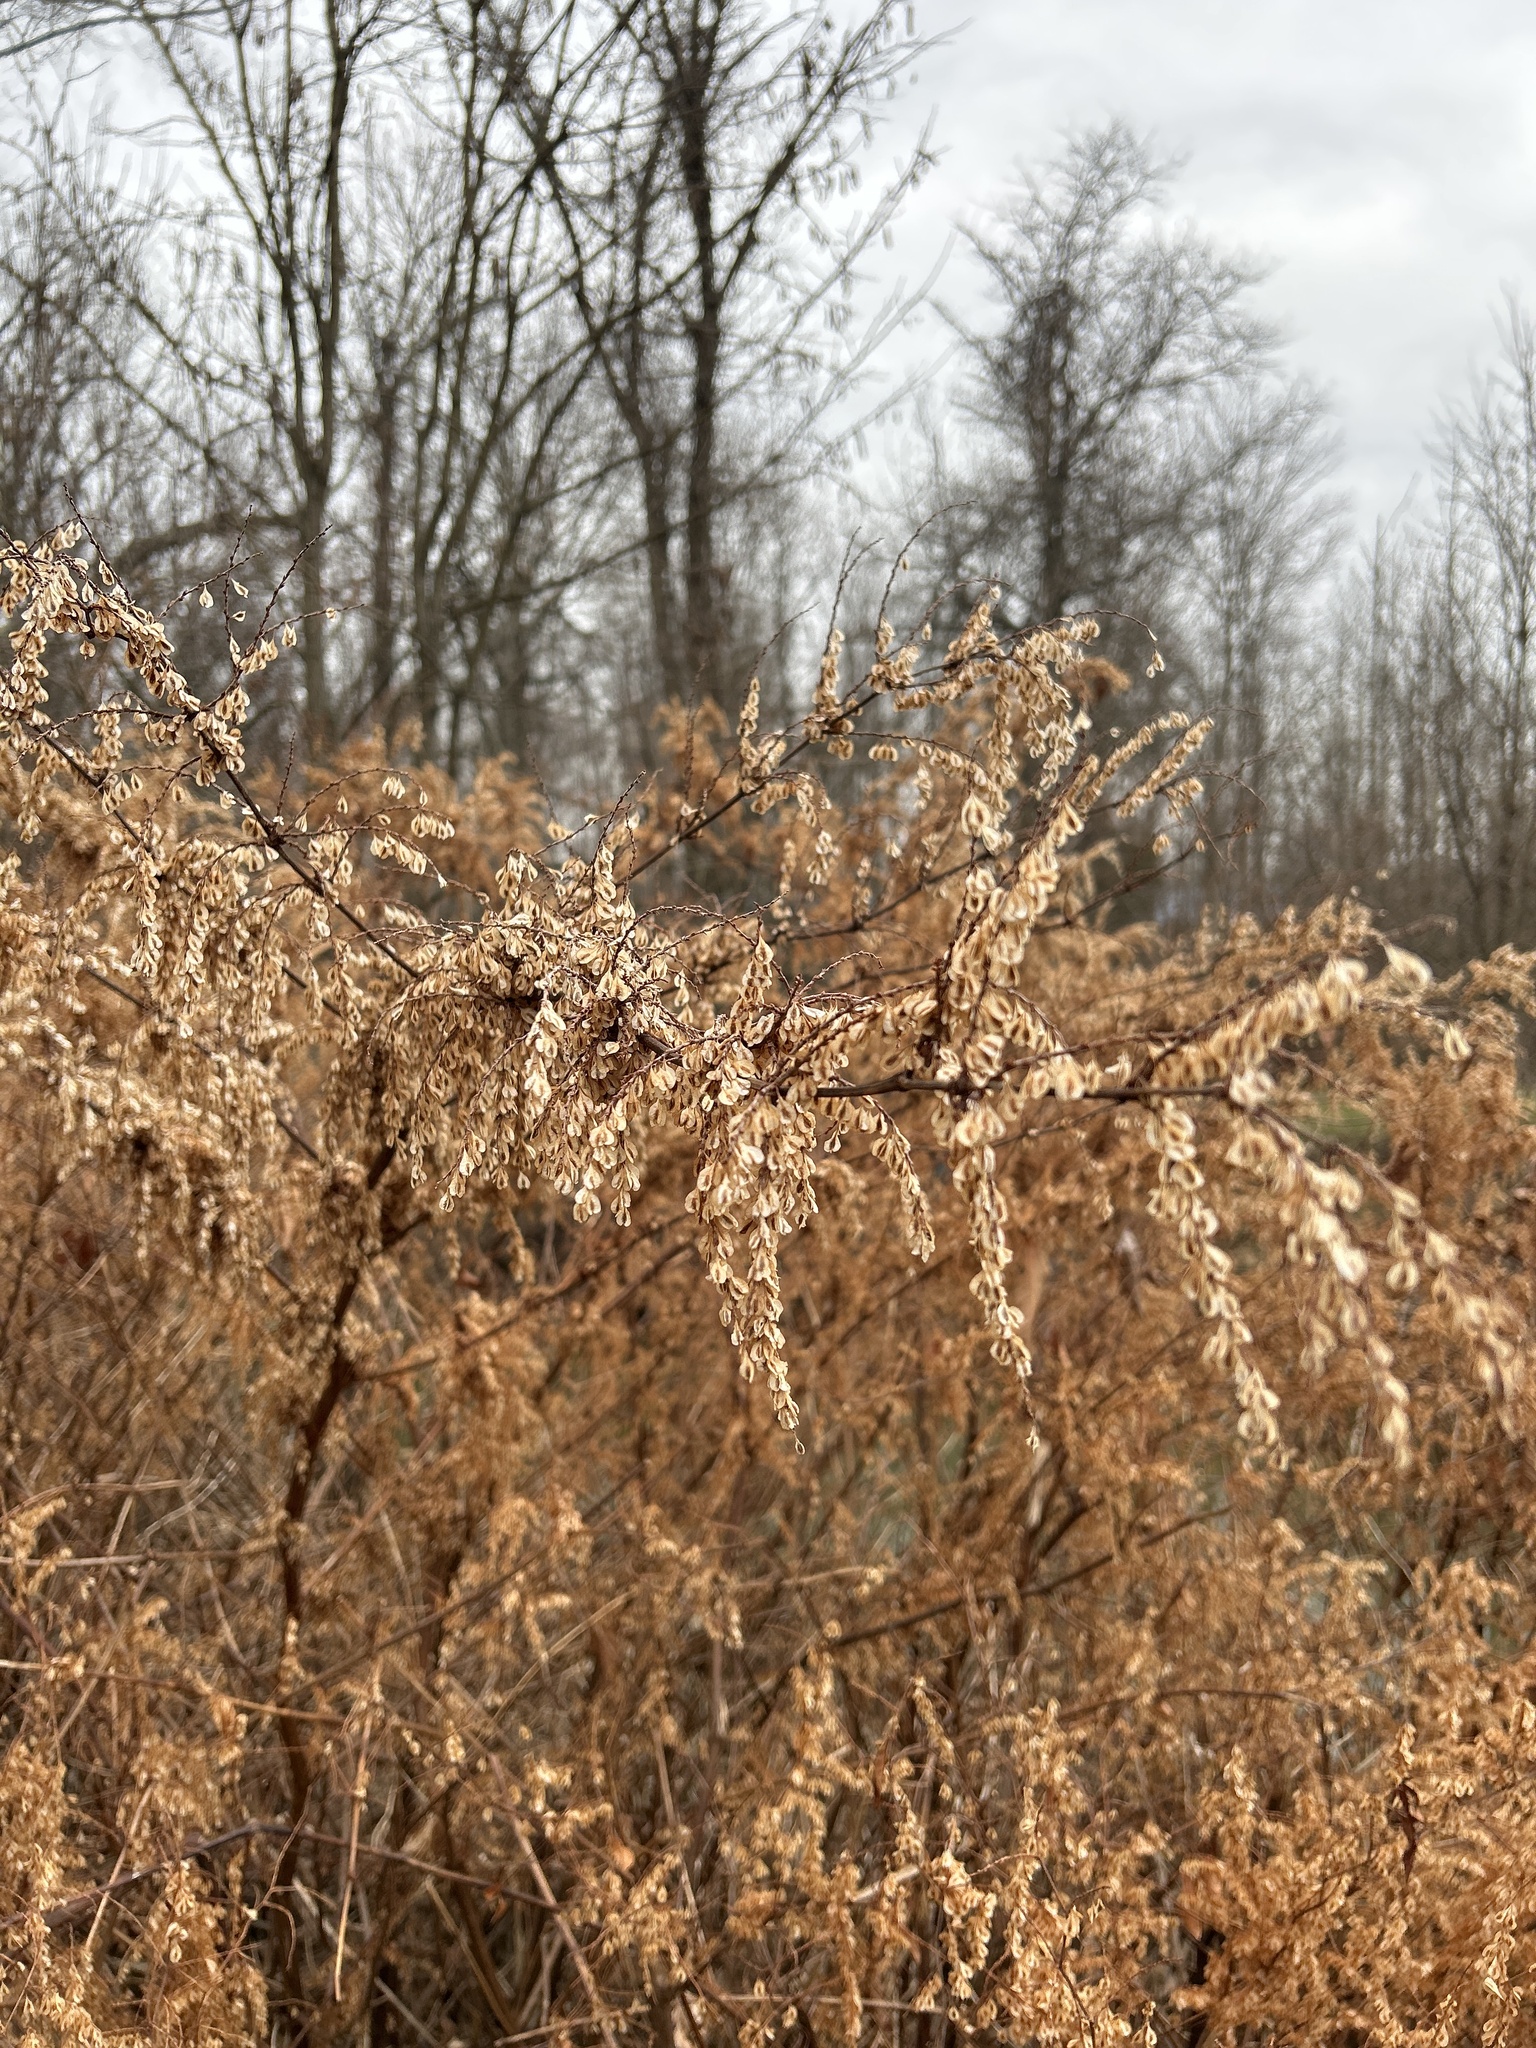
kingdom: Plantae
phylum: Tracheophyta
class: Magnoliopsida
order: Caryophyllales
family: Polygonaceae
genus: Reynoutria
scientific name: Reynoutria japonica
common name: Japanese knotweed
